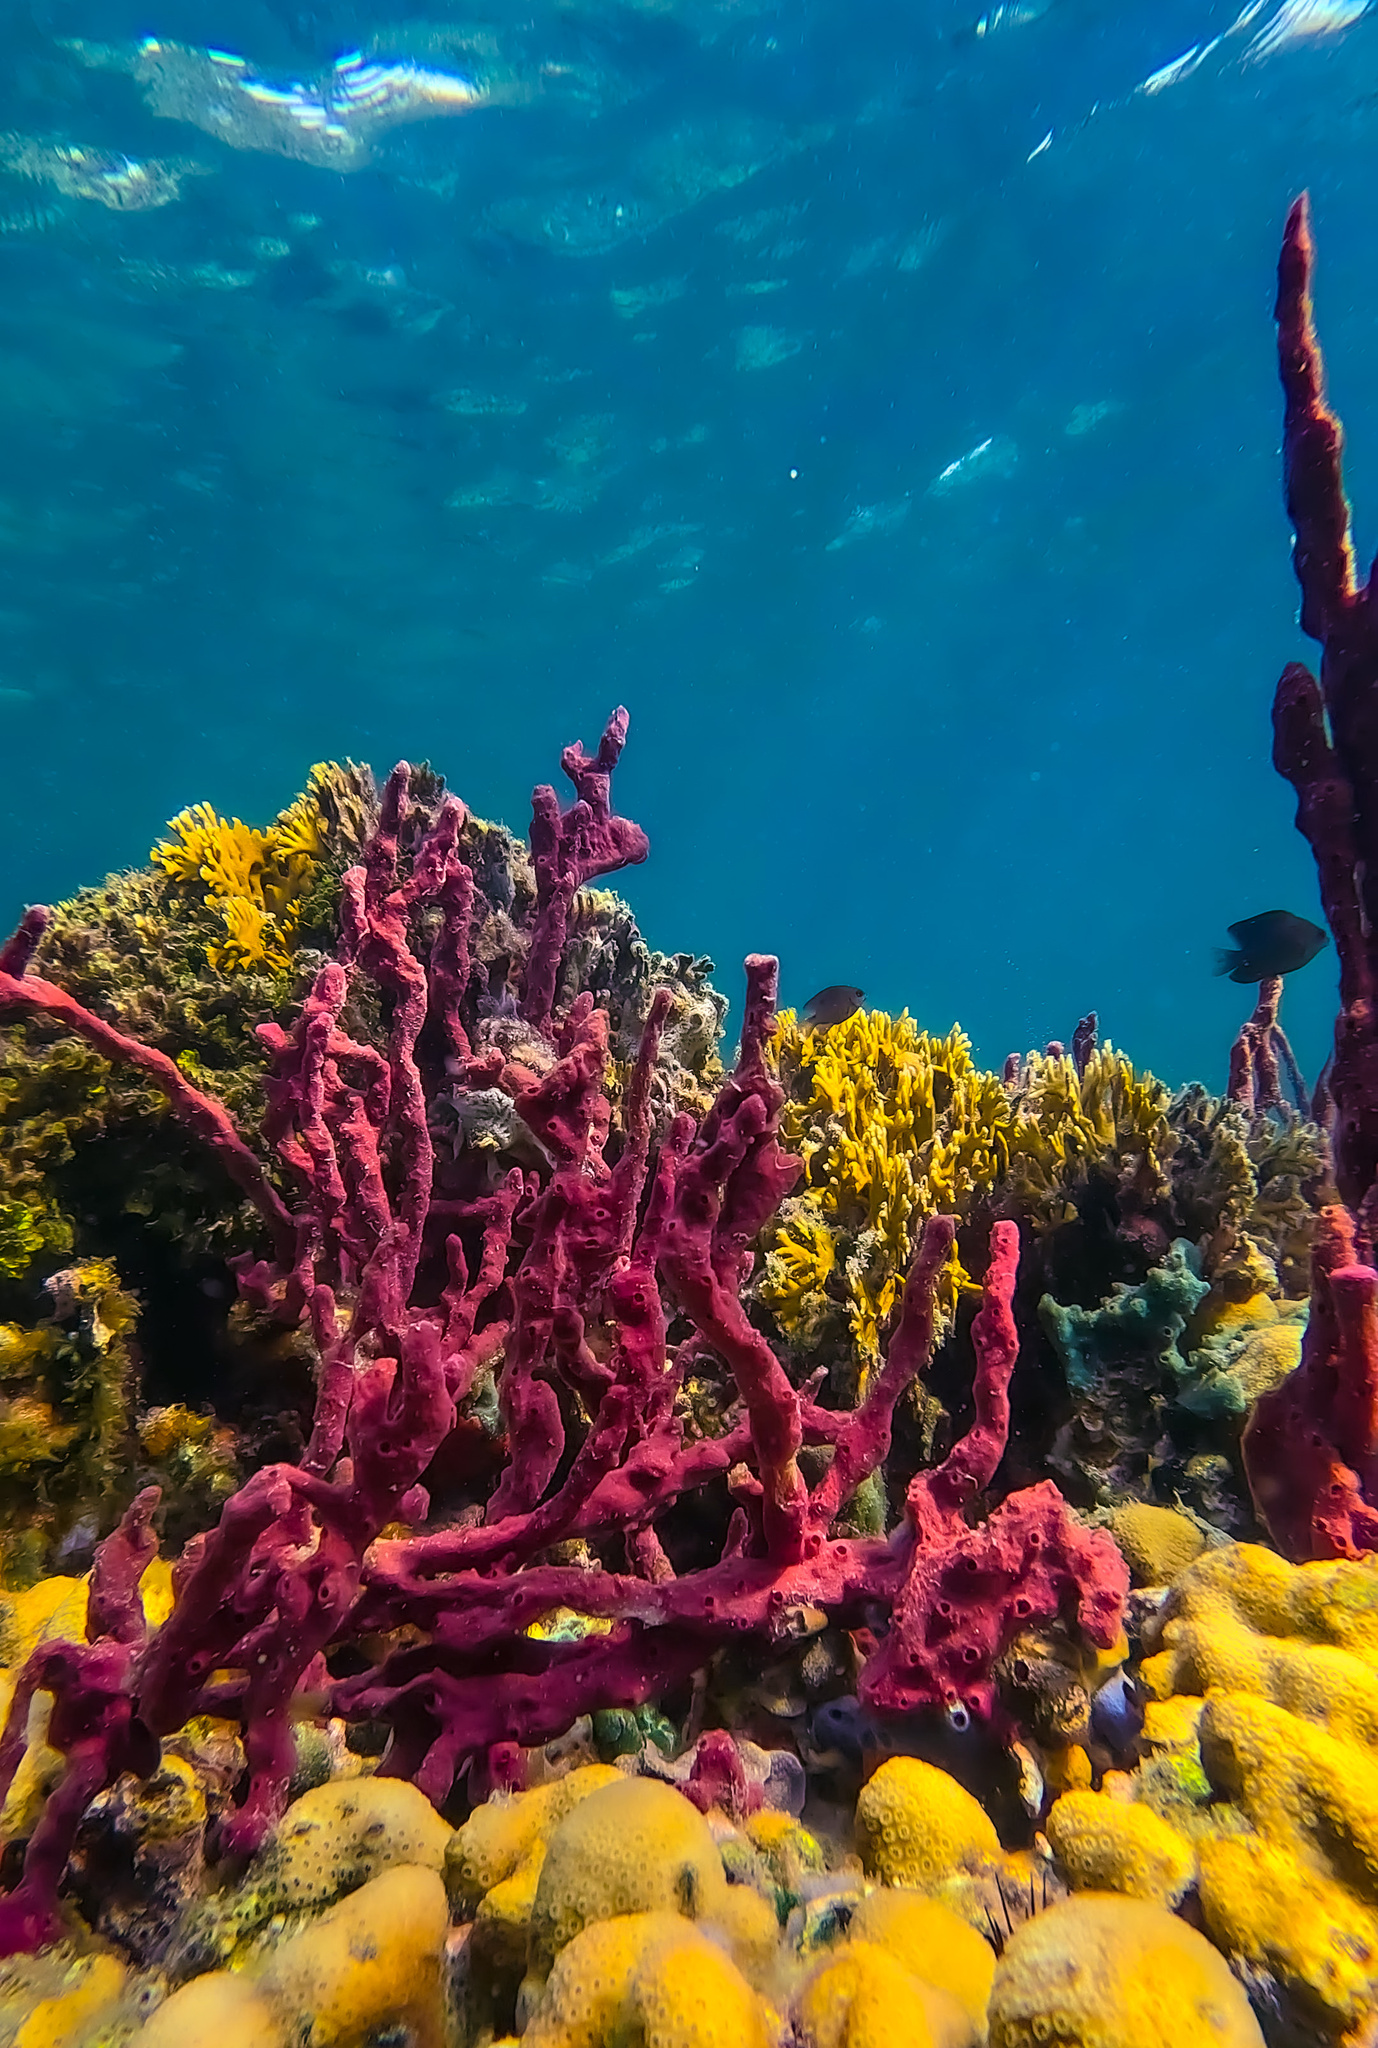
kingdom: Animalia
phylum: Porifera
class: Demospongiae
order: Haplosclerida
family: Niphatidae
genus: Amphimedon
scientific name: Amphimedon compressa
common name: Red sponge
